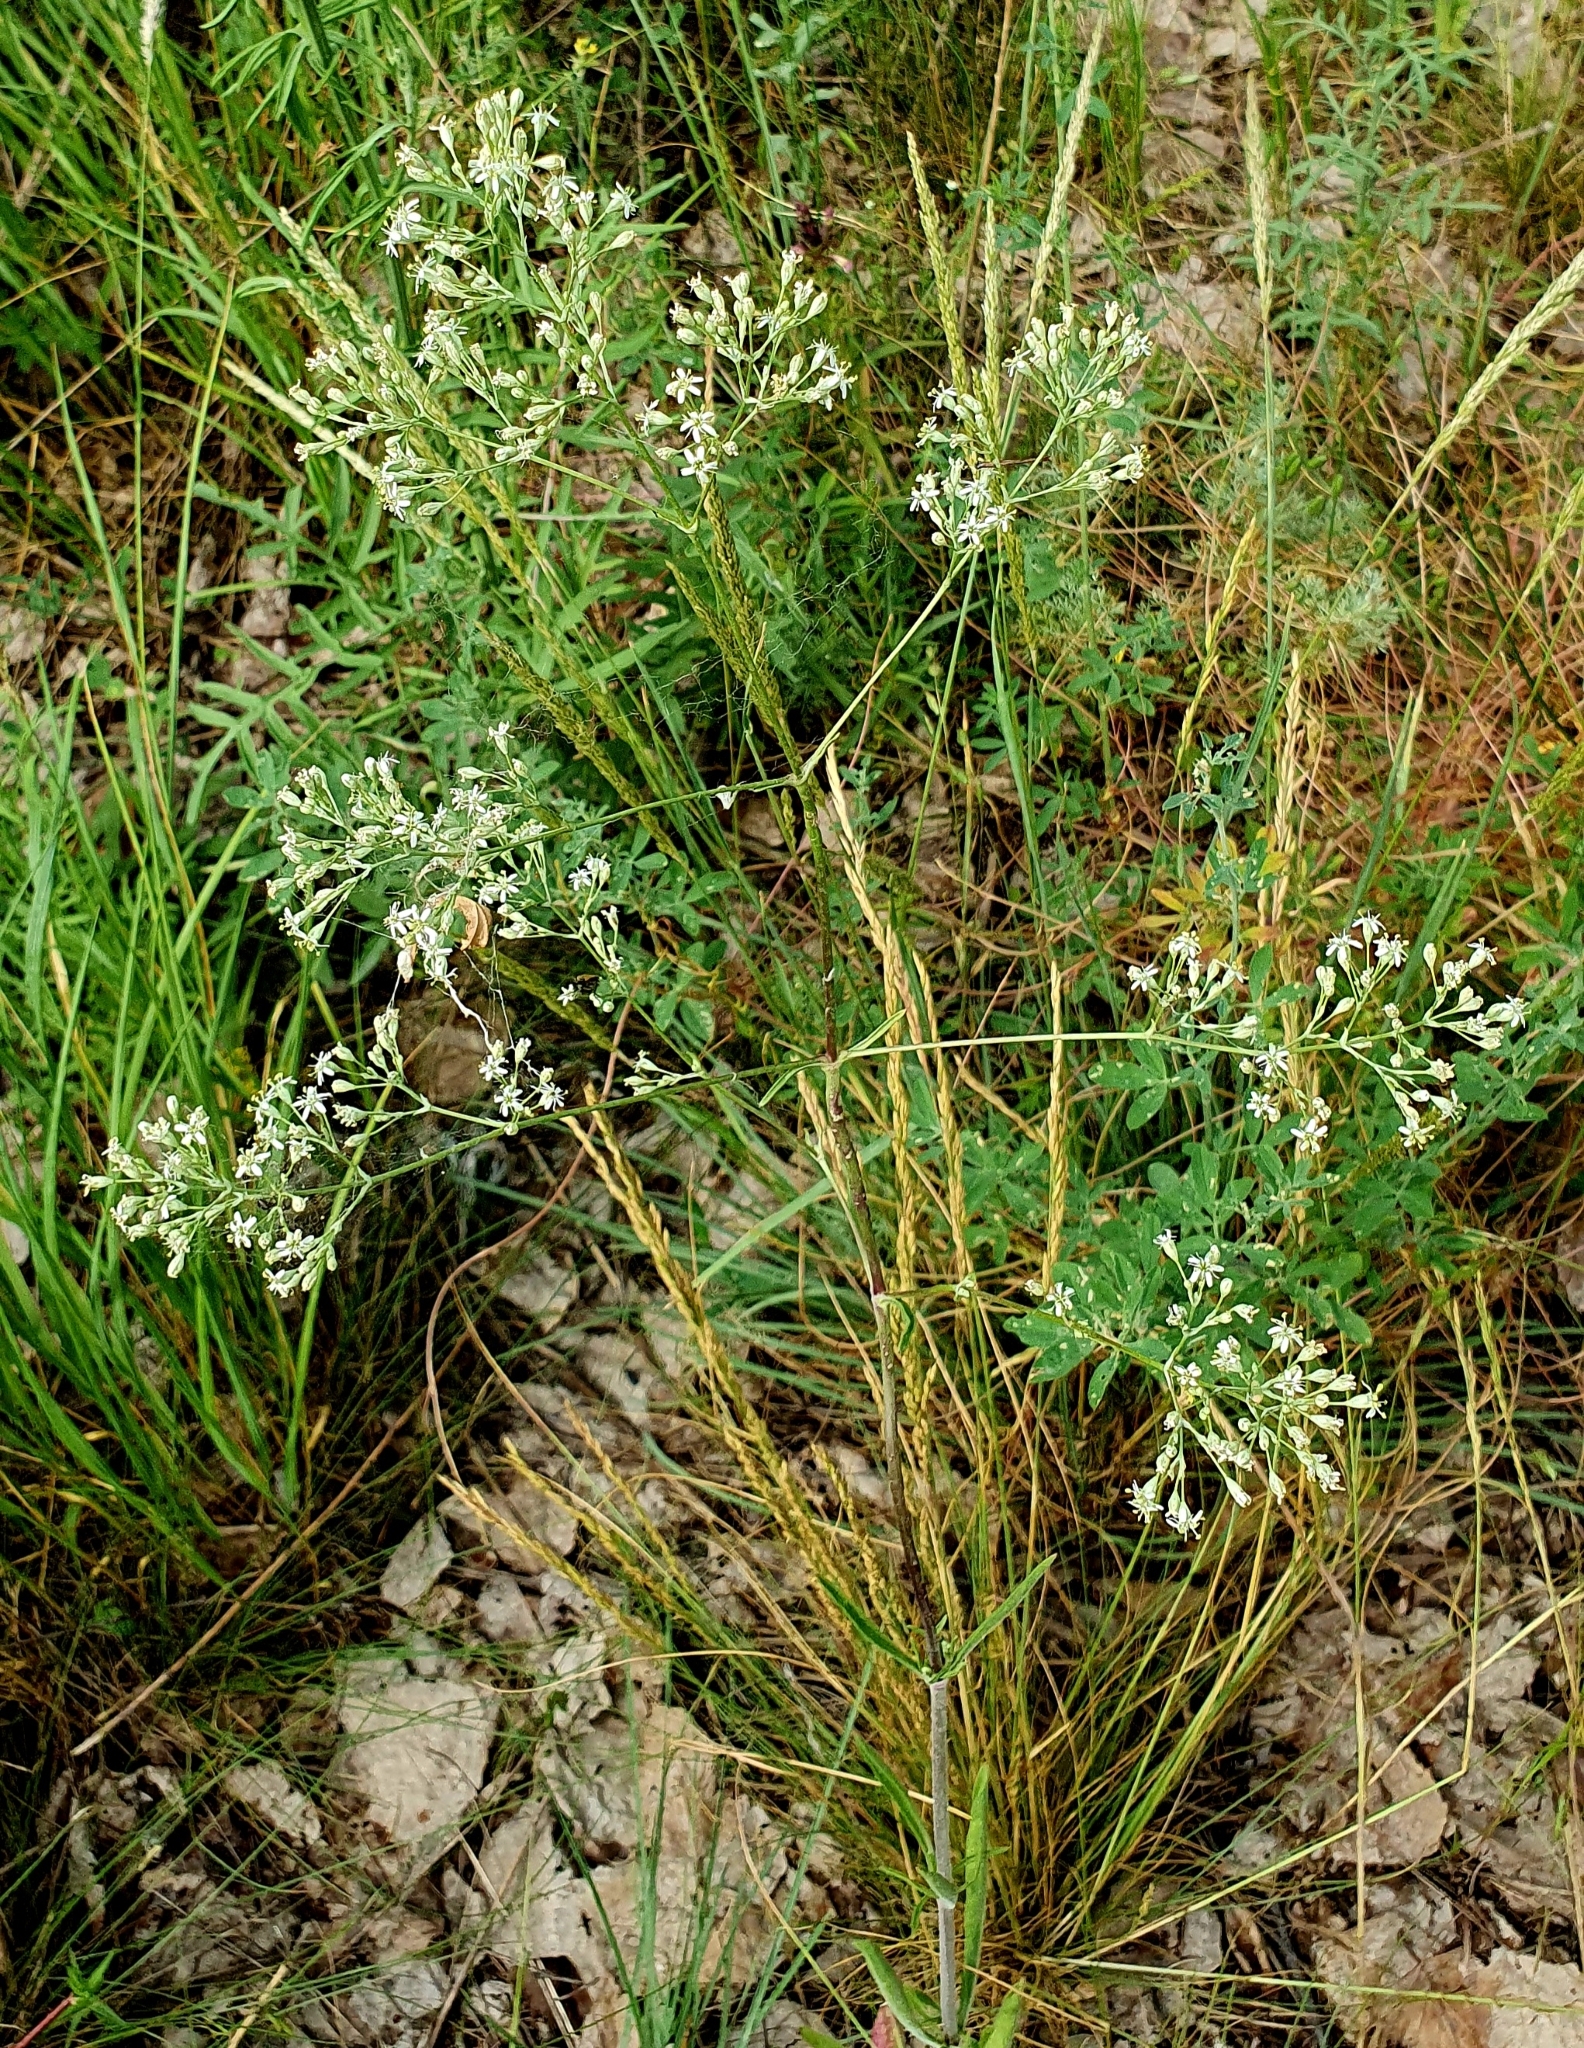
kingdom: Plantae
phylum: Tracheophyta
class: Magnoliopsida
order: Caryophyllales
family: Caryophyllaceae
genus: Silene
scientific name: Silene wolgensis
